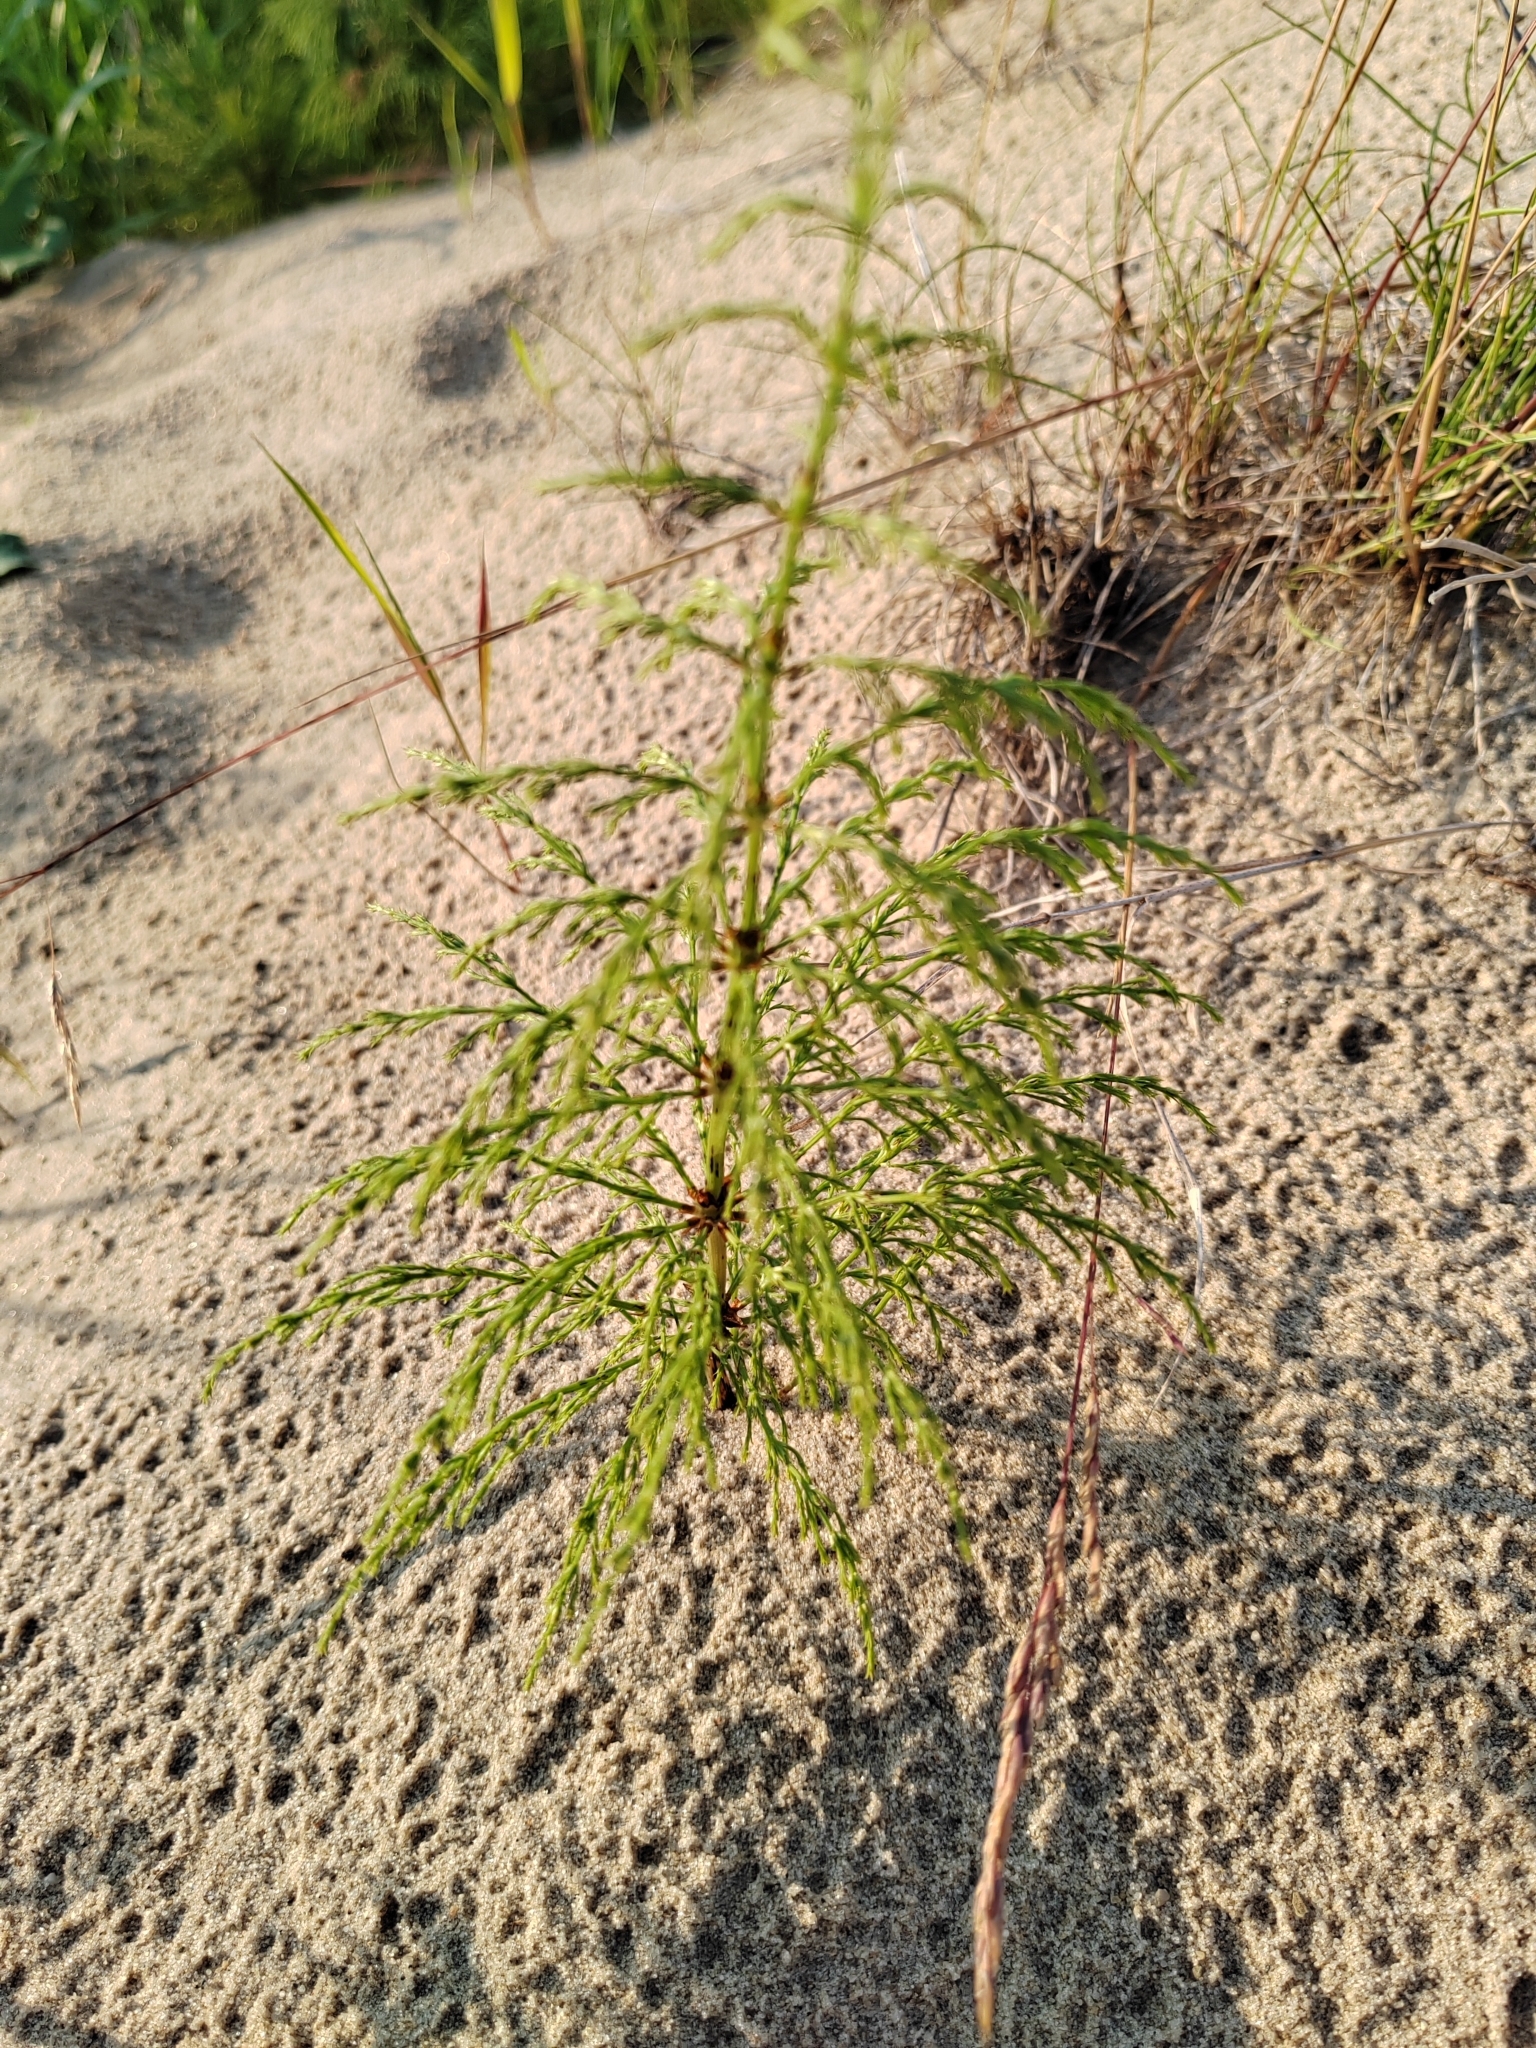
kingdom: Plantae
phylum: Tracheophyta
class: Polypodiopsida
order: Equisetales
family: Equisetaceae
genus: Equisetum
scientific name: Equisetum sylvaticum
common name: Wood horsetail
